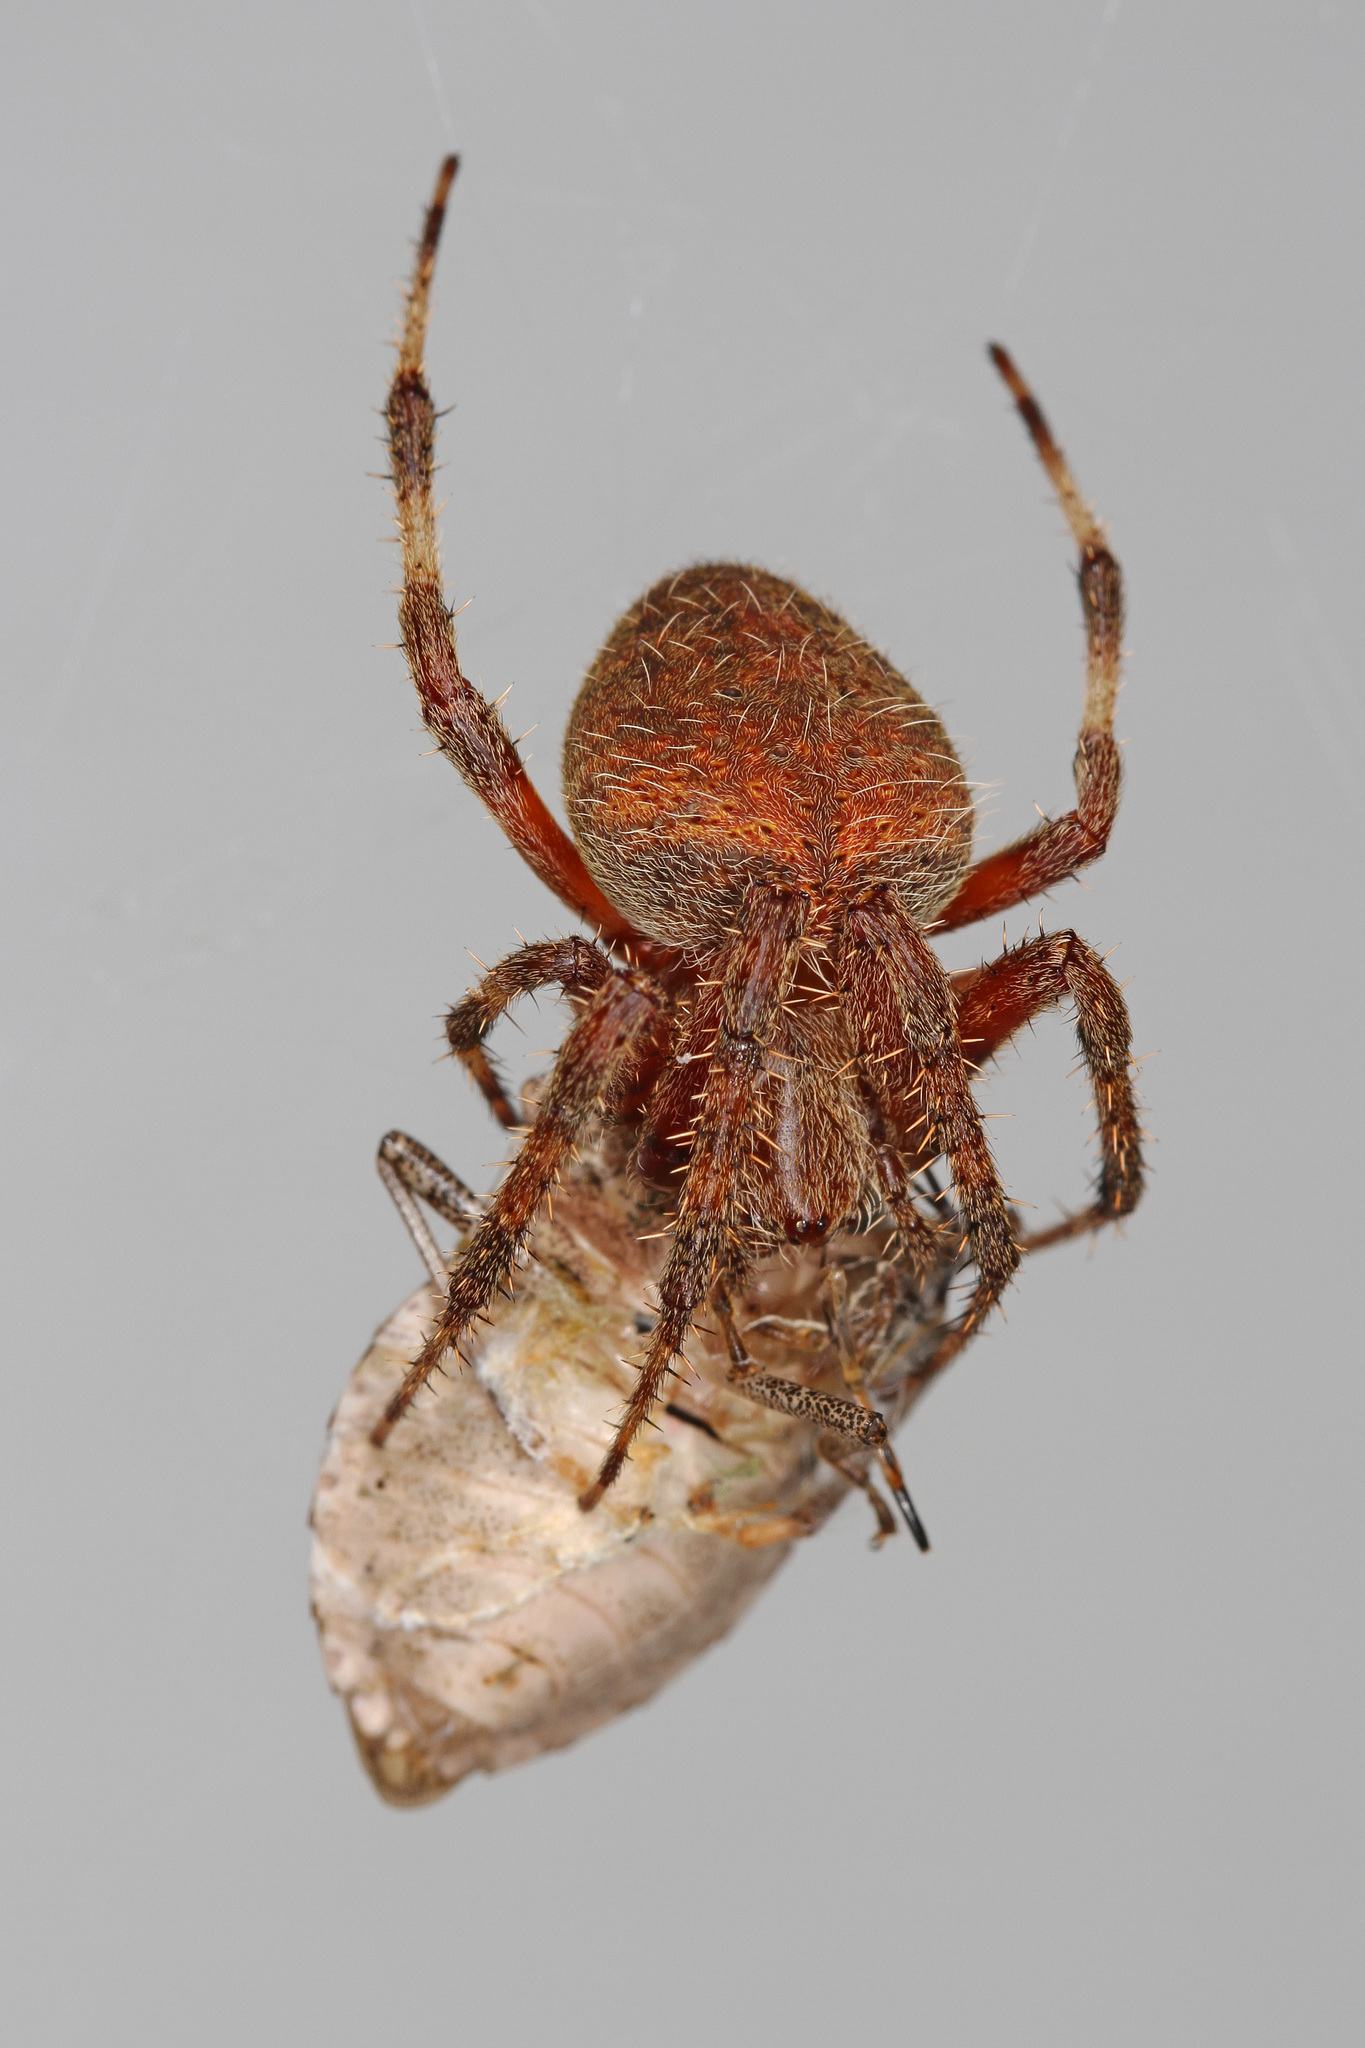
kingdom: Animalia
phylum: Arthropoda
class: Arachnida
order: Araneae
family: Araneidae
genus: Neoscona
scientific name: Neoscona crucifera
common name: Spotted orbweaver
